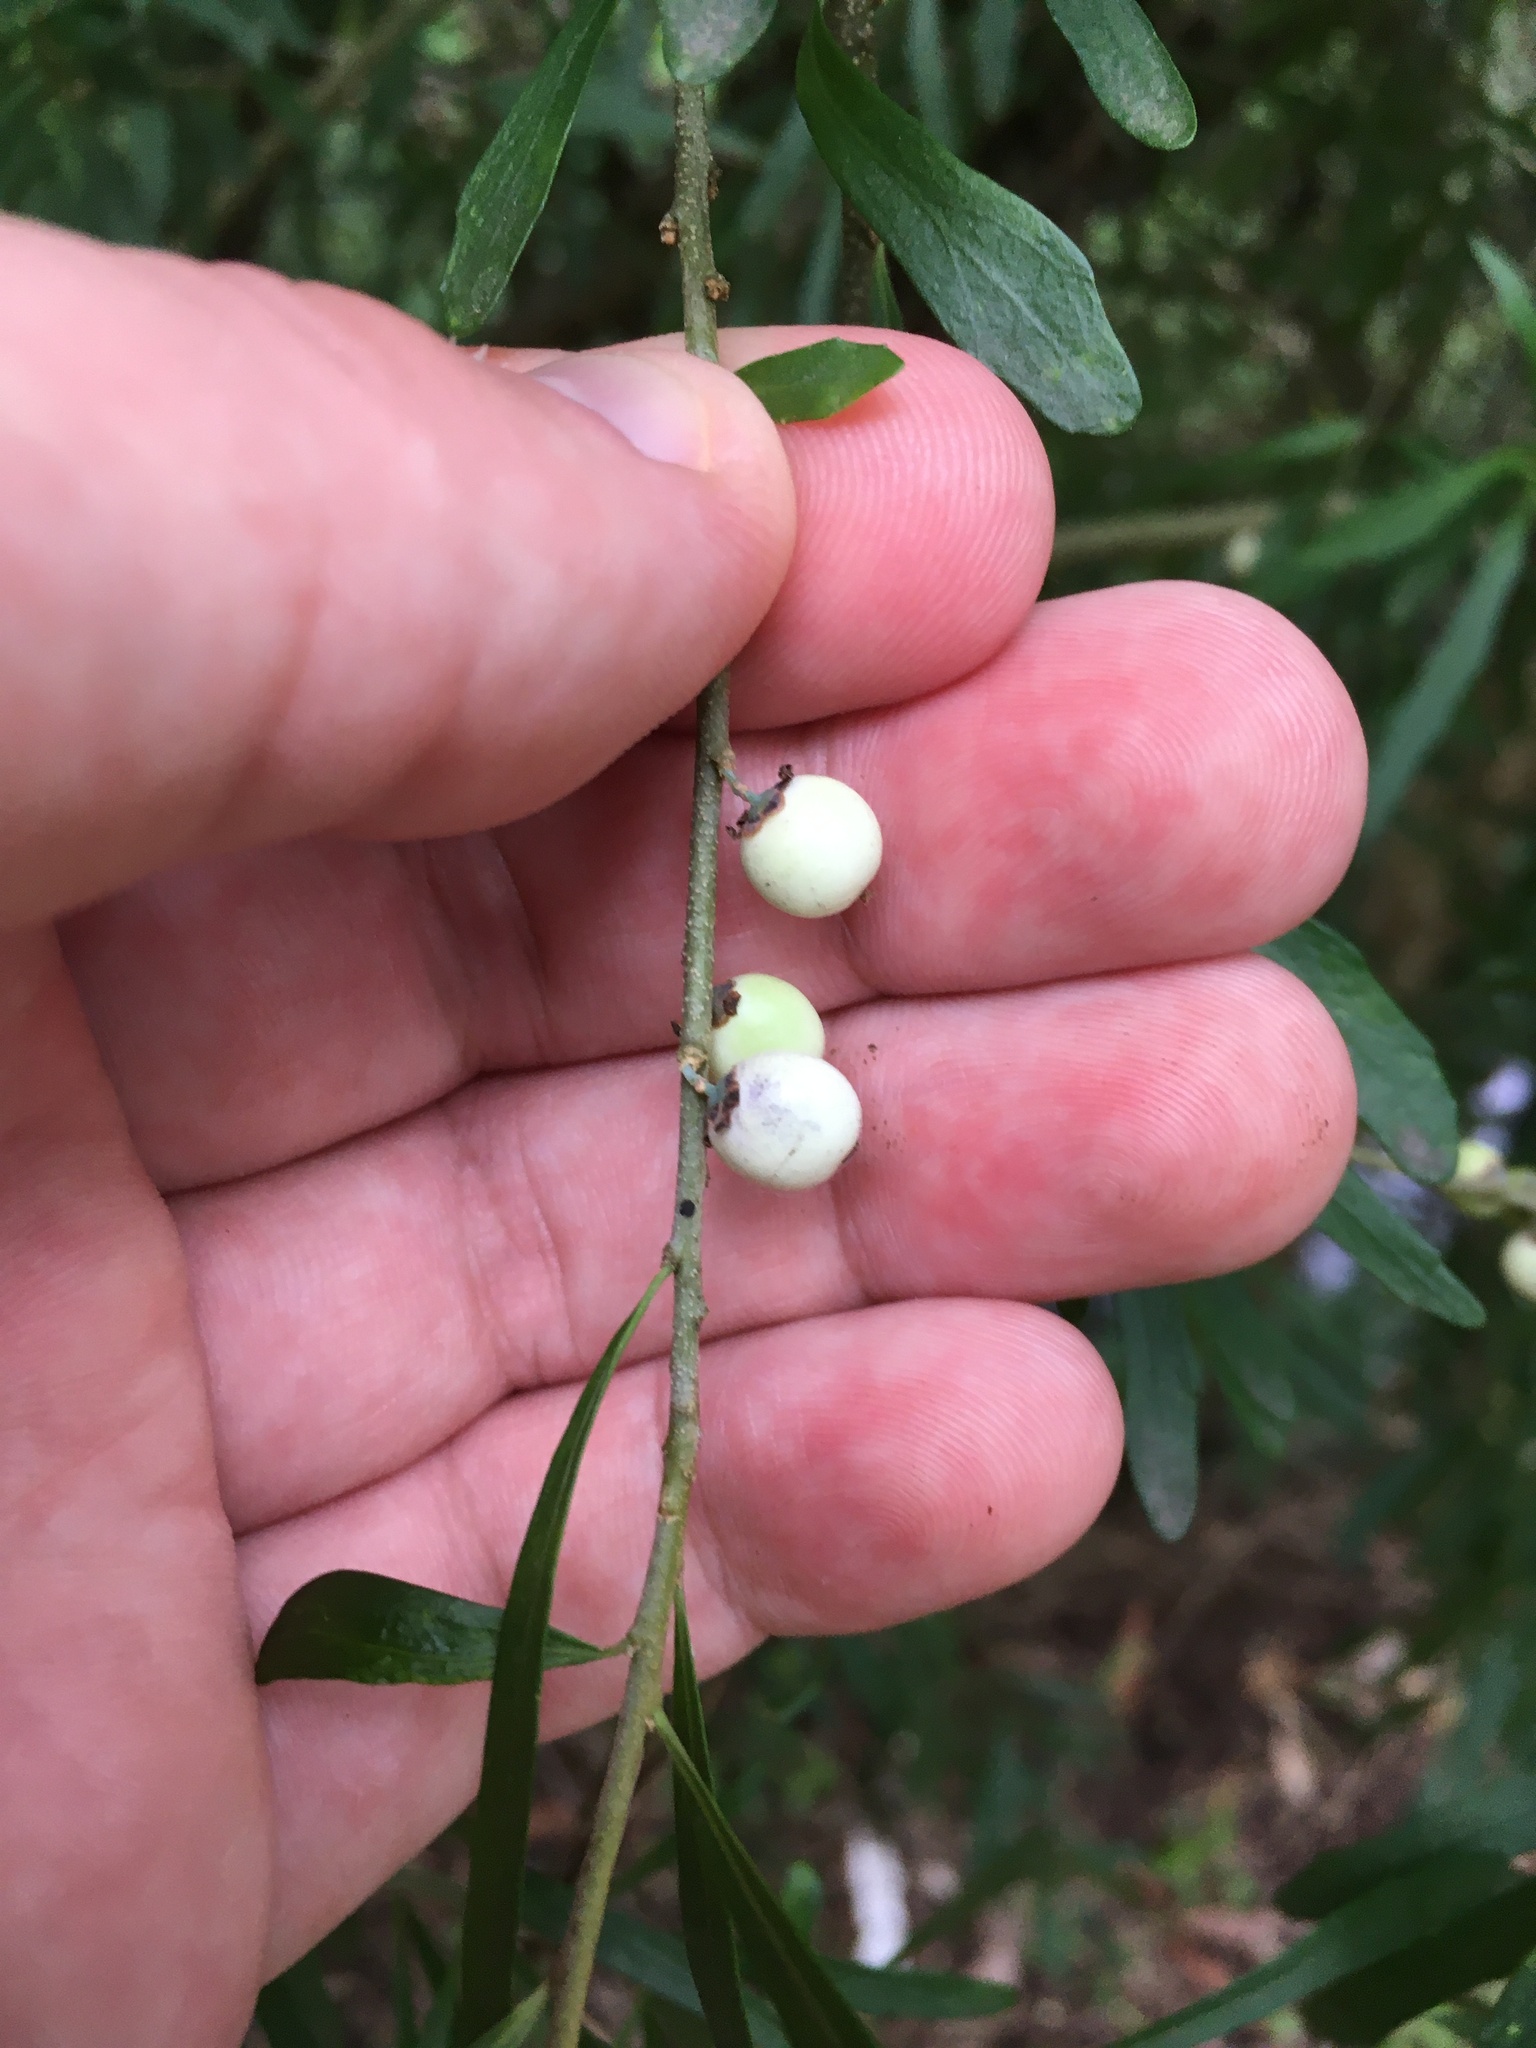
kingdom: Plantae
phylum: Tracheophyta
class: Magnoliopsida
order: Malpighiales
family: Violaceae
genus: Melicytus
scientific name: Melicytus dentatus
